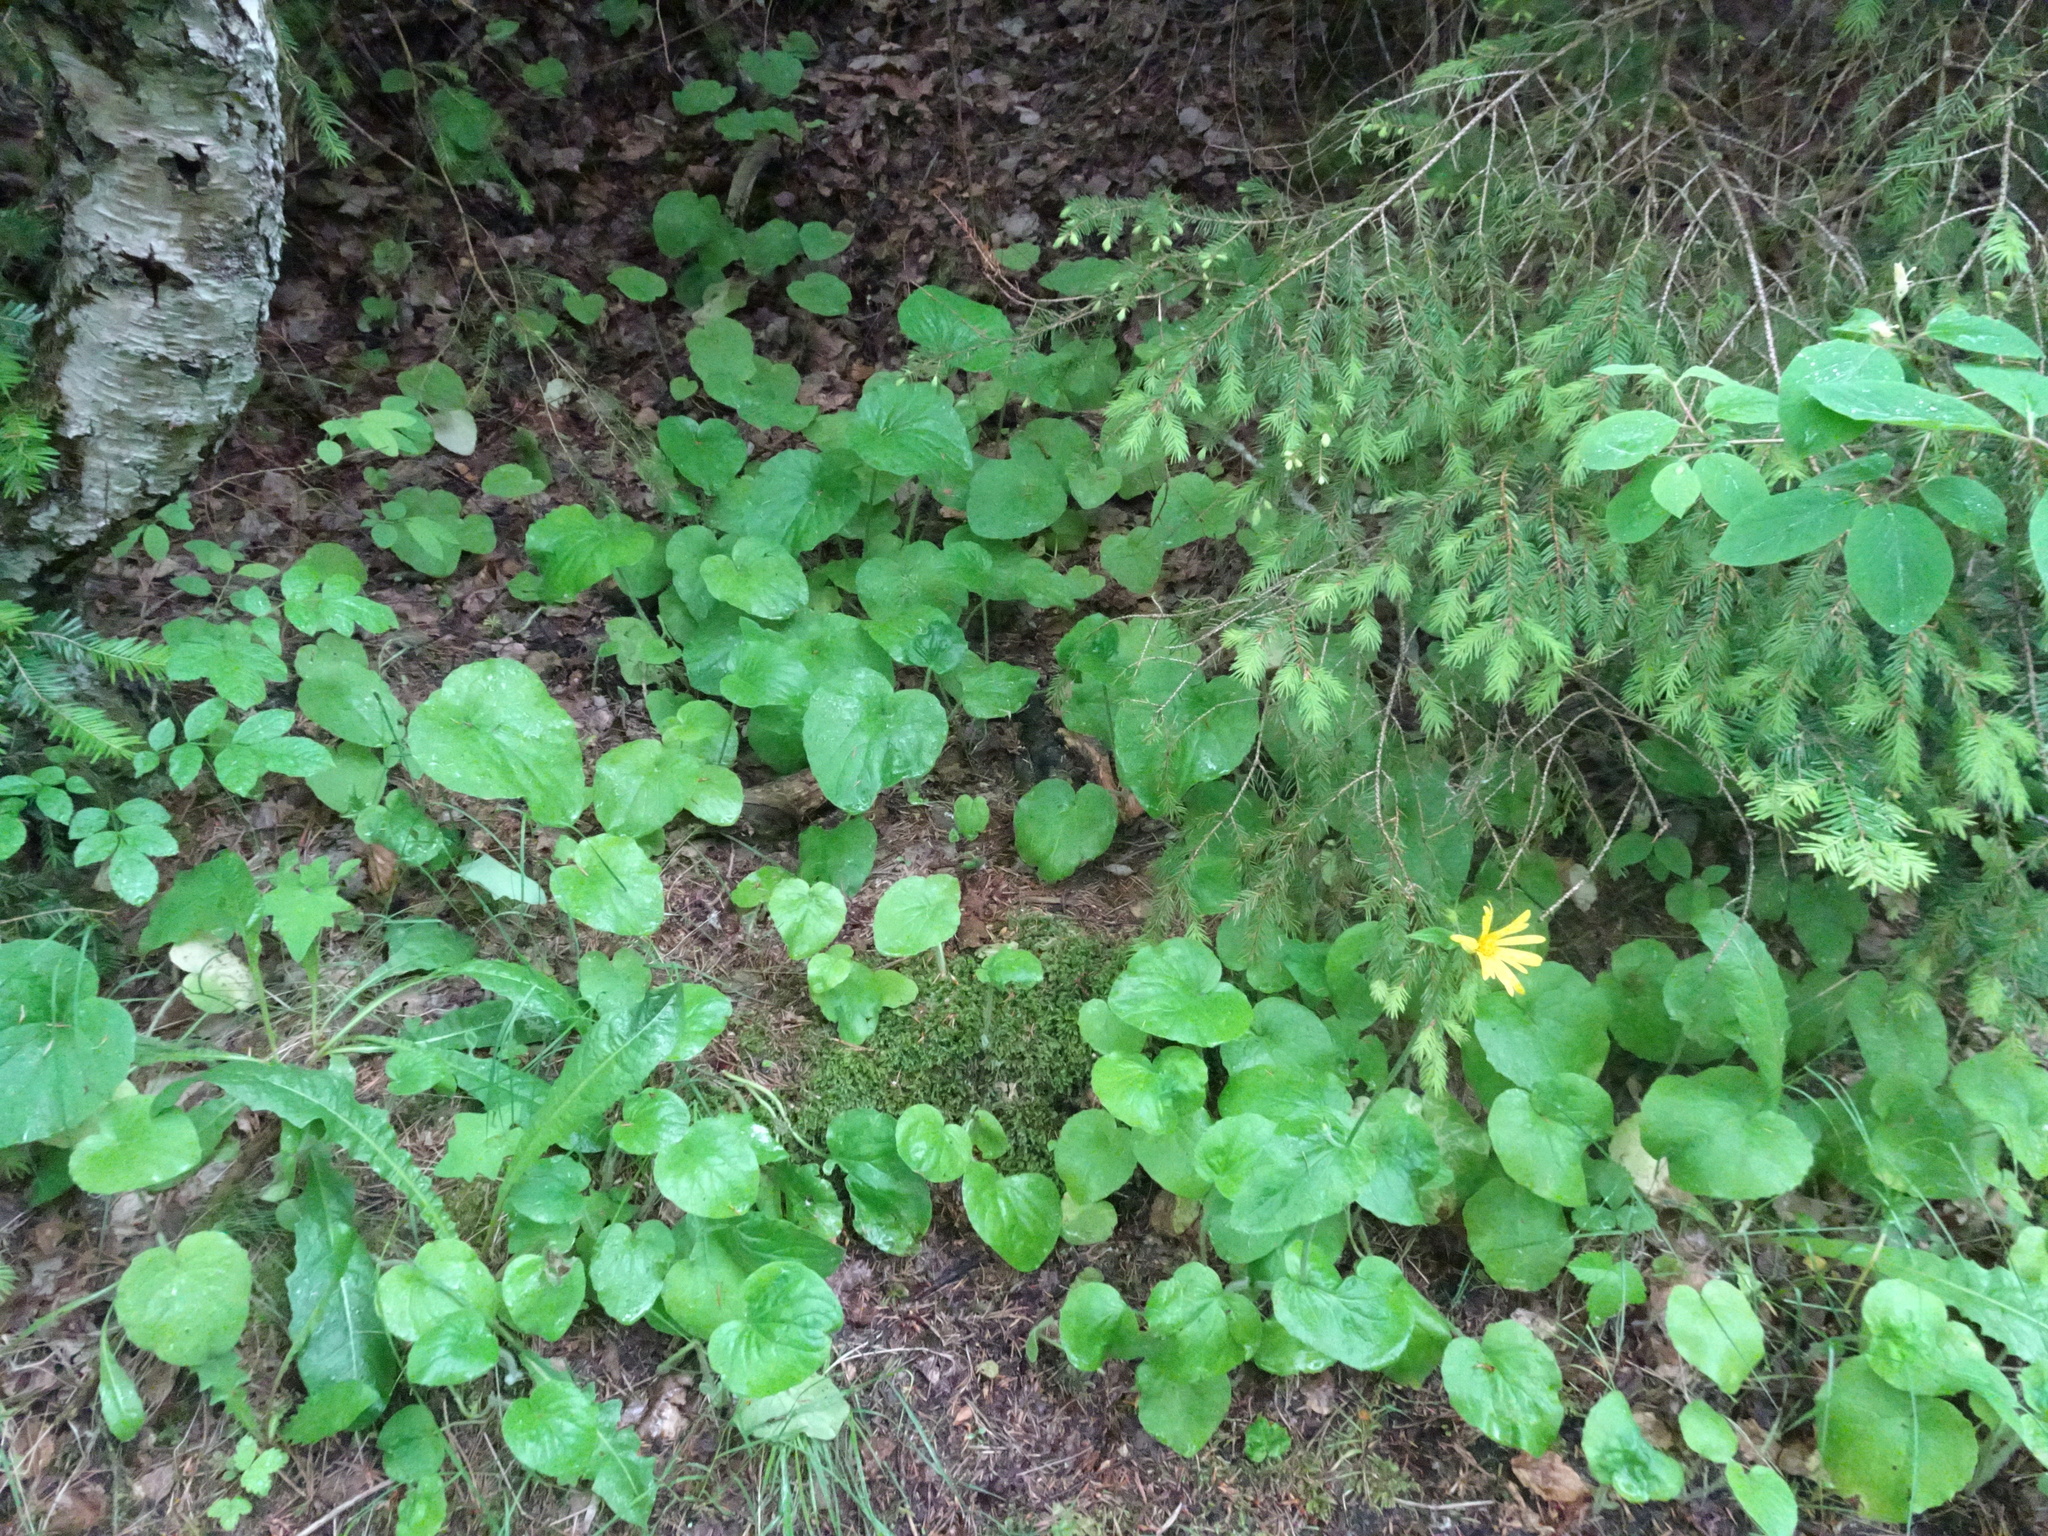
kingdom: Plantae
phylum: Tracheophyta
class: Magnoliopsida
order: Asterales
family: Asteraceae
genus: Doronicum
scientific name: Doronicum pardalianches
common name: Leopard's-bane
